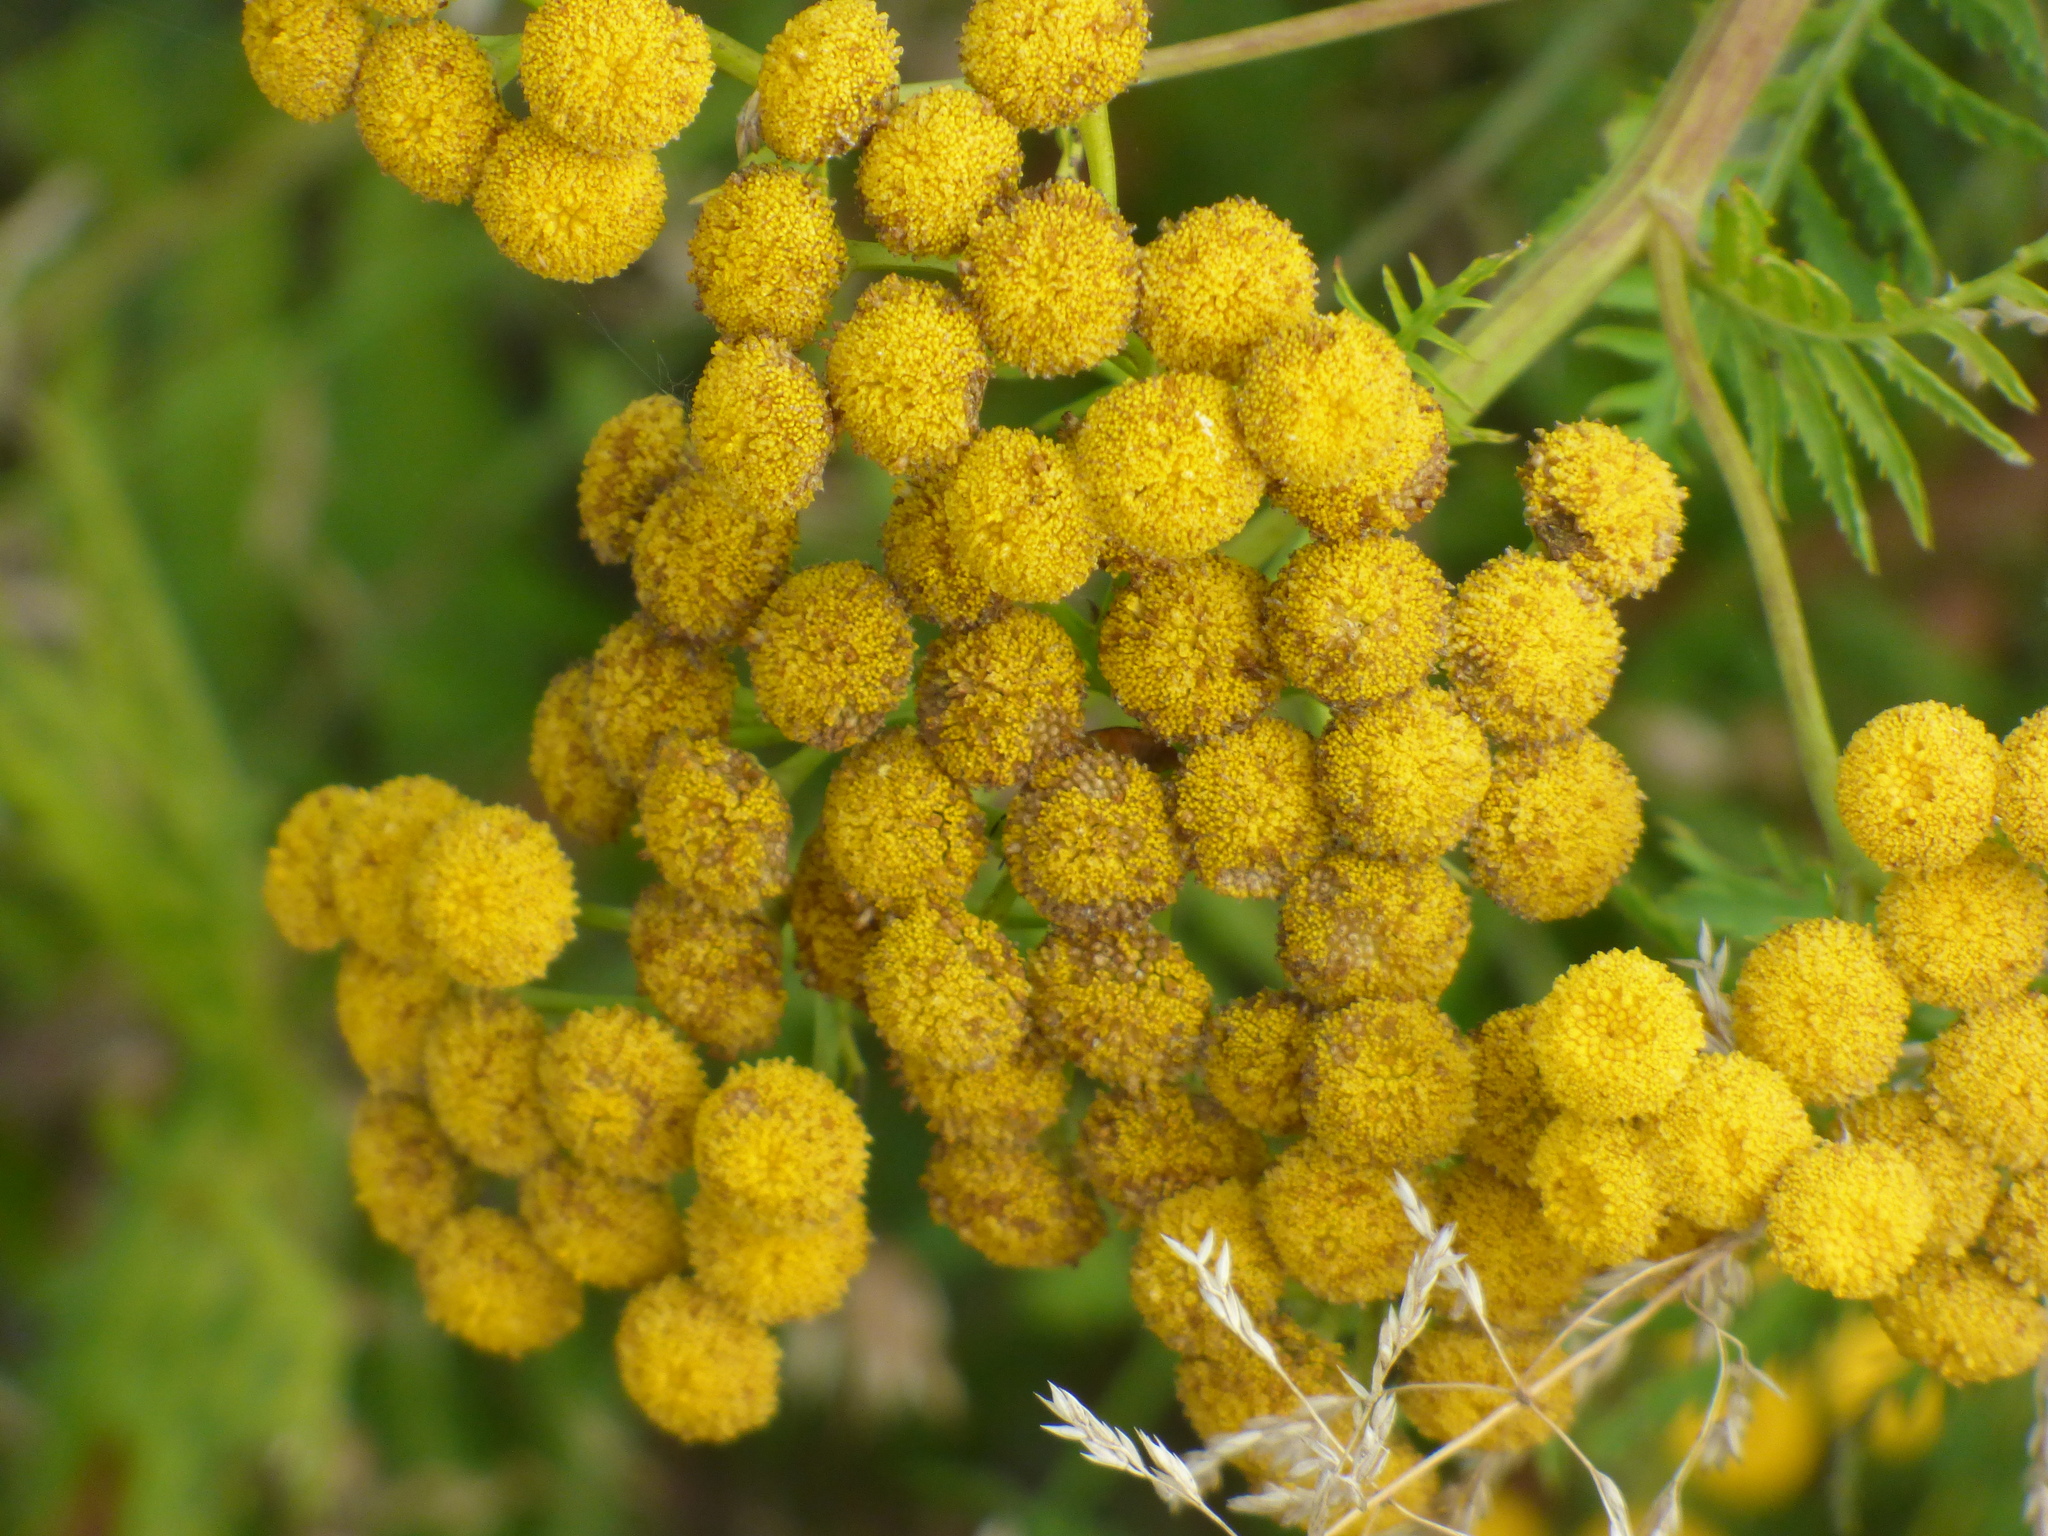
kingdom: Plantae
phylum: Tracheophyta
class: Magnoliopsida
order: Asterales
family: Asteraceae
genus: Tanacetum
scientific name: Tanacetum vulgare
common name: Common tansy
